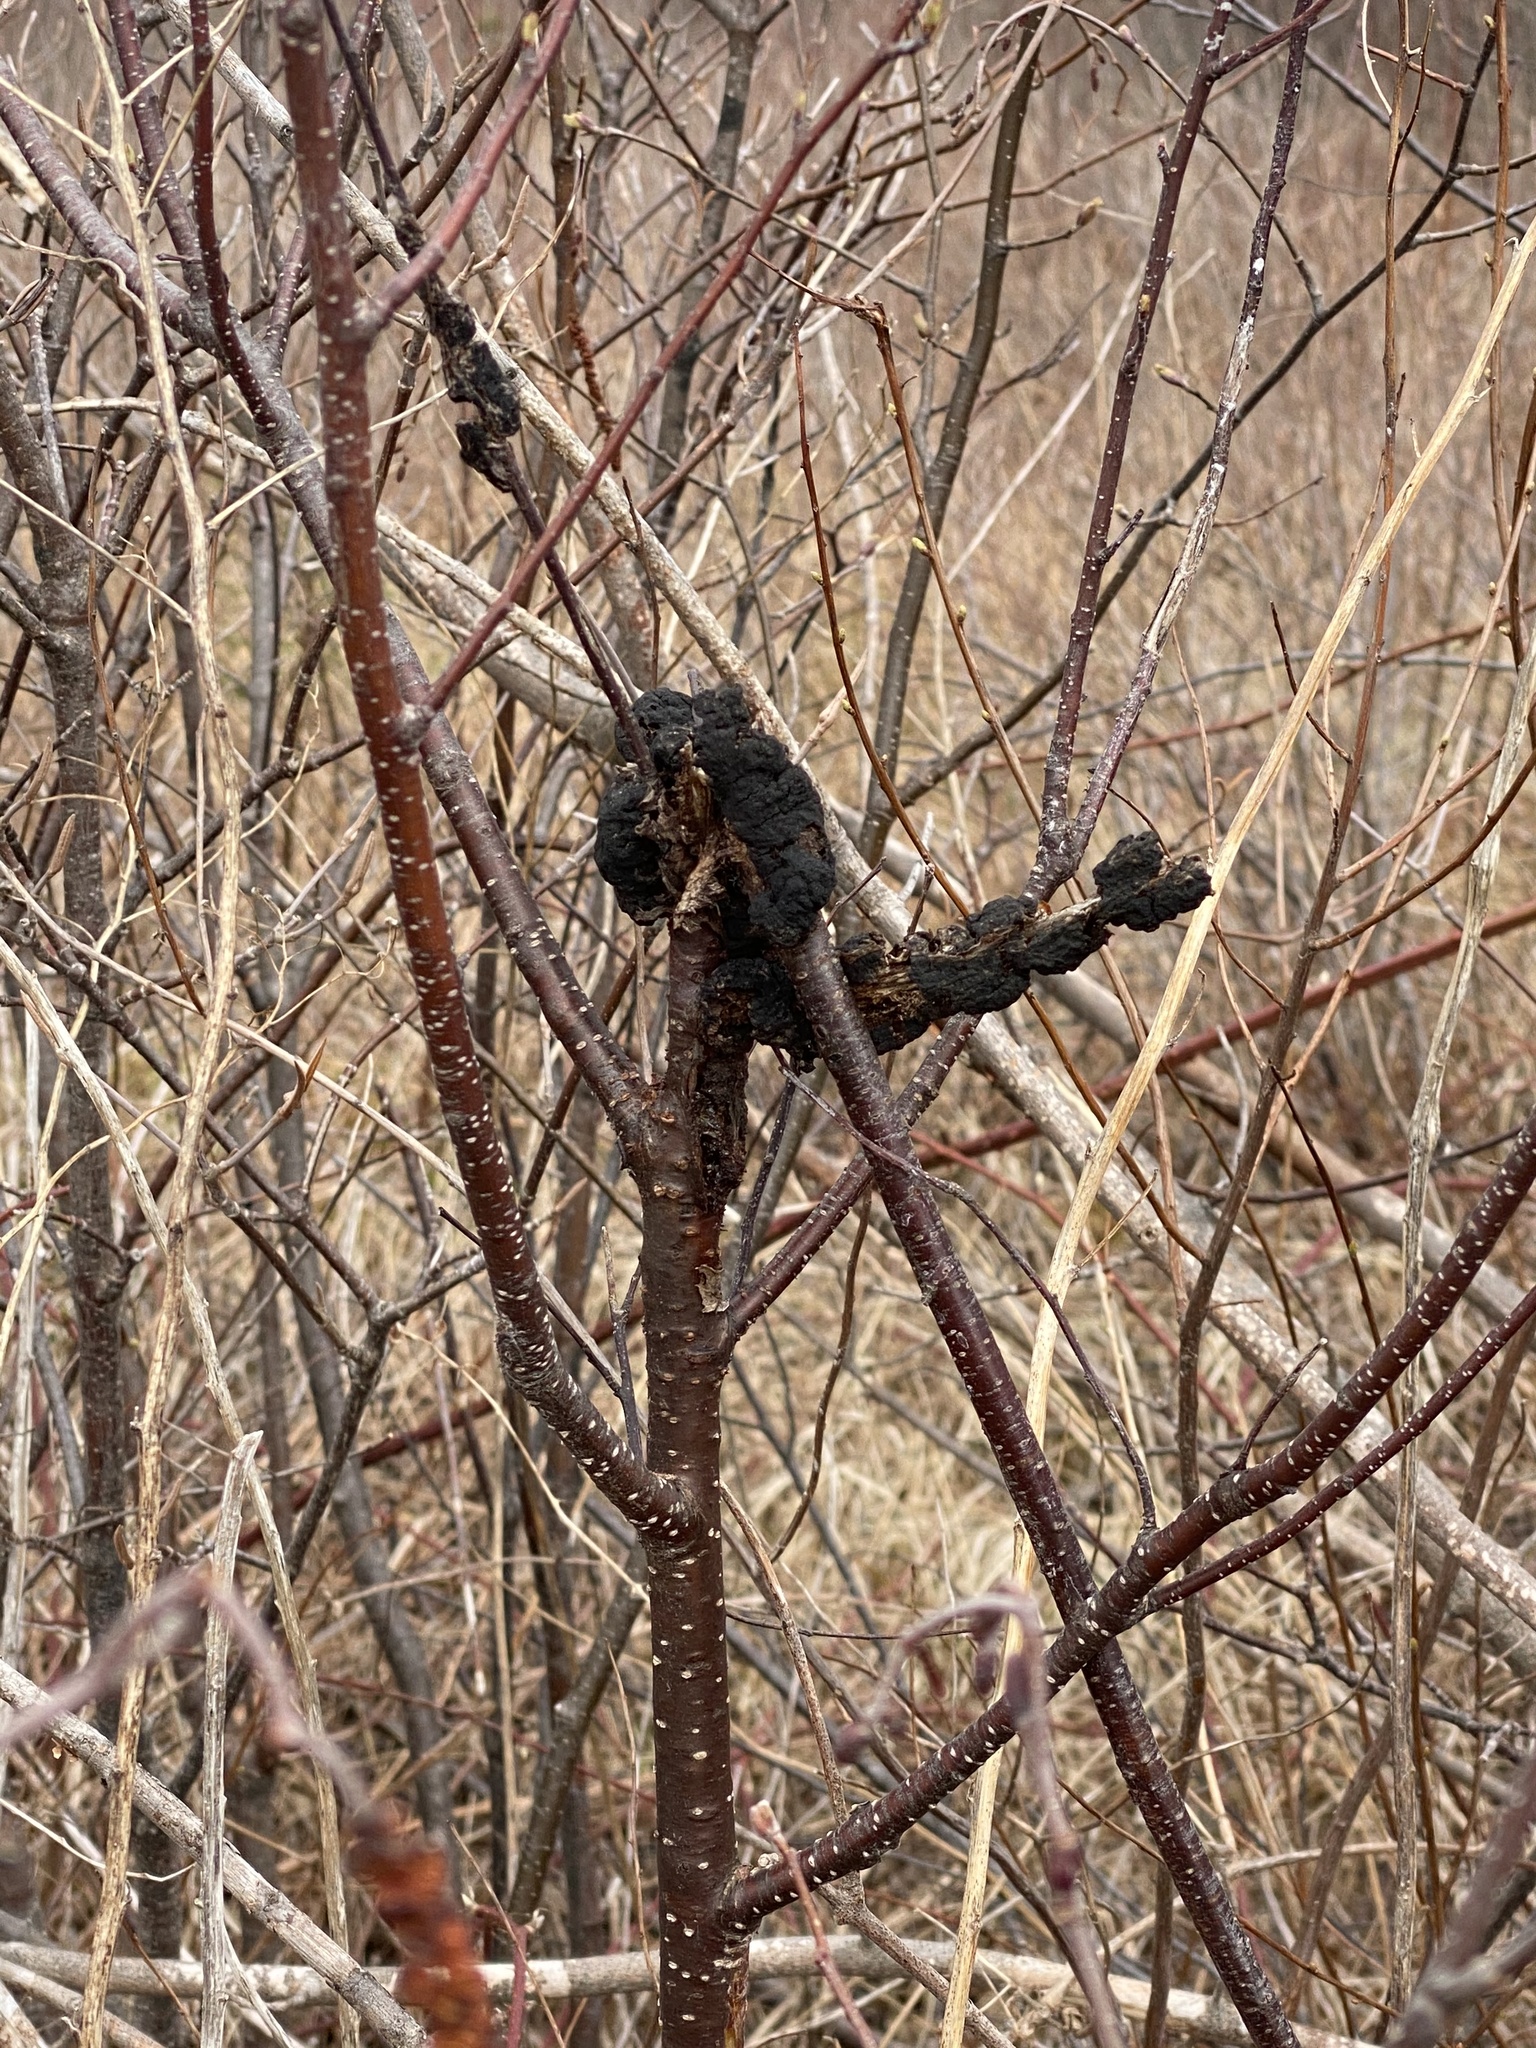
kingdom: Fungi
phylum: Ascomycota
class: Dothideomycetes
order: Venturiales
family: Venturiaceae
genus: Apiosporina
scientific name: Apiosporina morbosa
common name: Black knot
